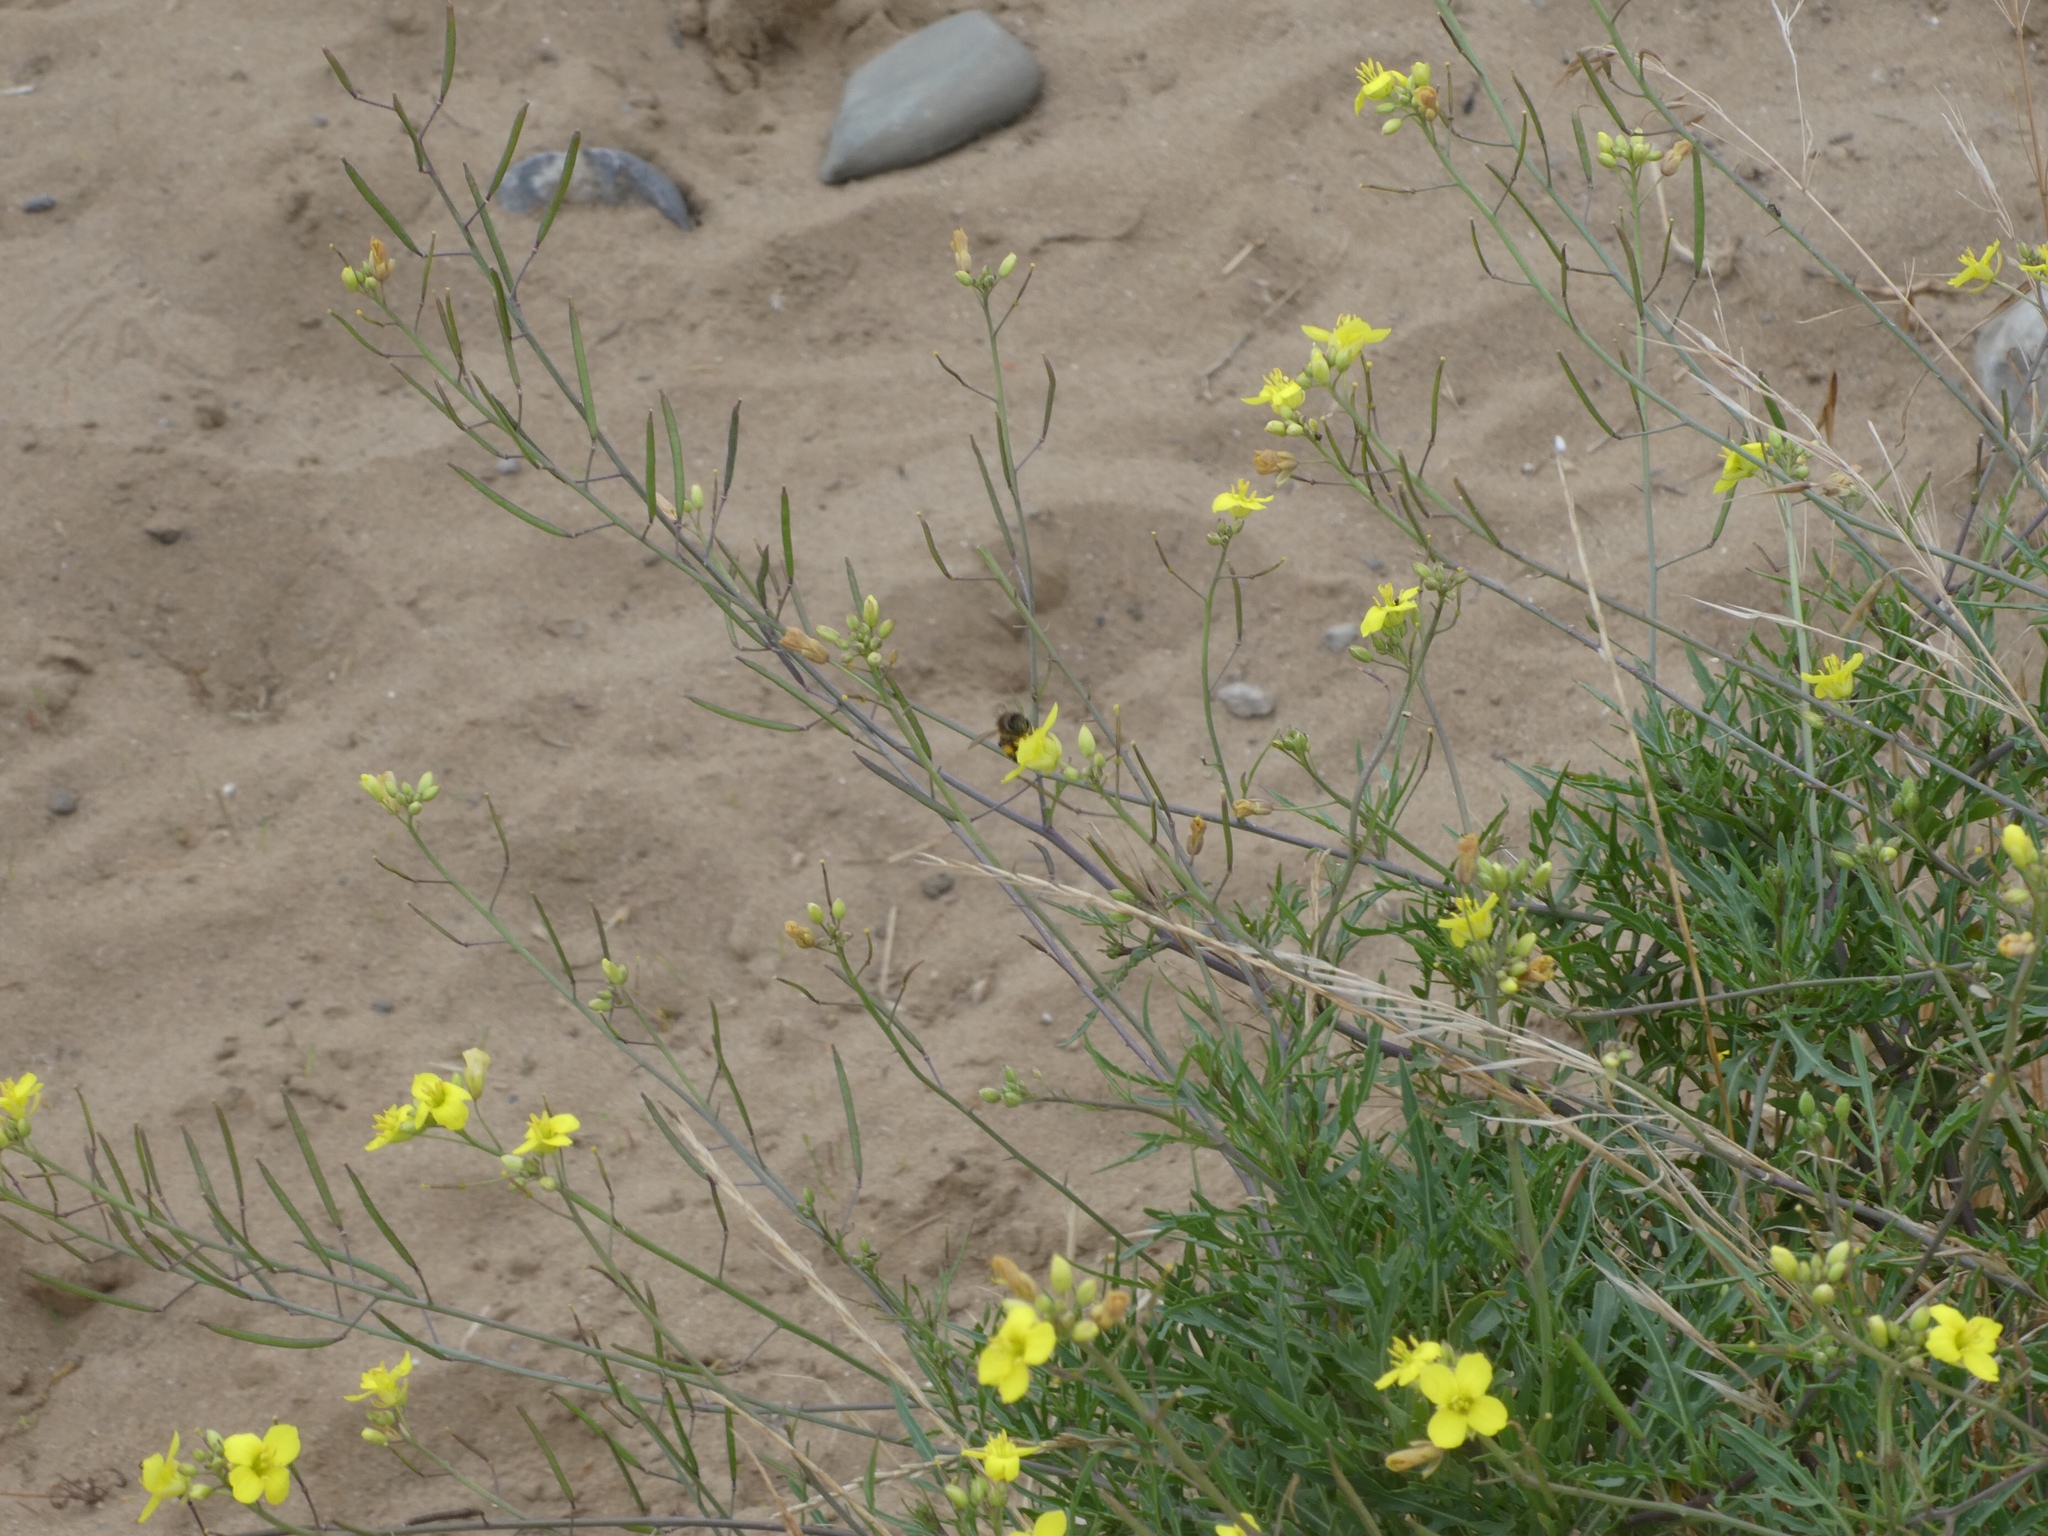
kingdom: Plantae
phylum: Tracheophyta
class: Magnoliopsida
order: Brassicales
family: Brassicaceae
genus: Diplotaxis
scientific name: Diplotaxis tenuifolia
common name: Perennial wall-rocket
